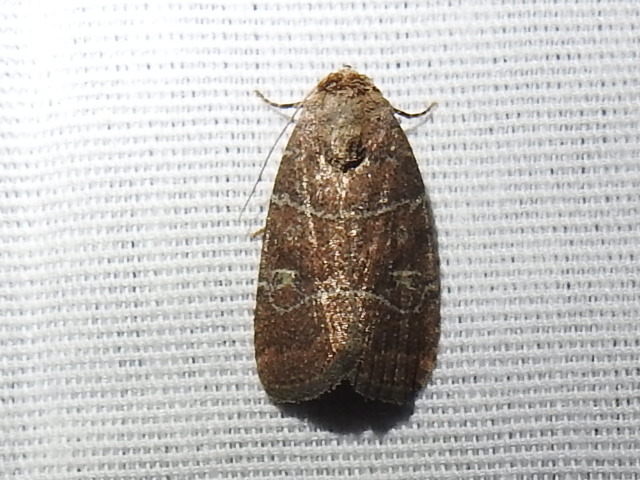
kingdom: Animalia
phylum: Arthropoda
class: Insecta
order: Lepidoptera
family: Noctuidae
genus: Elaphria
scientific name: Elaphria grata
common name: Grateful midget moth
